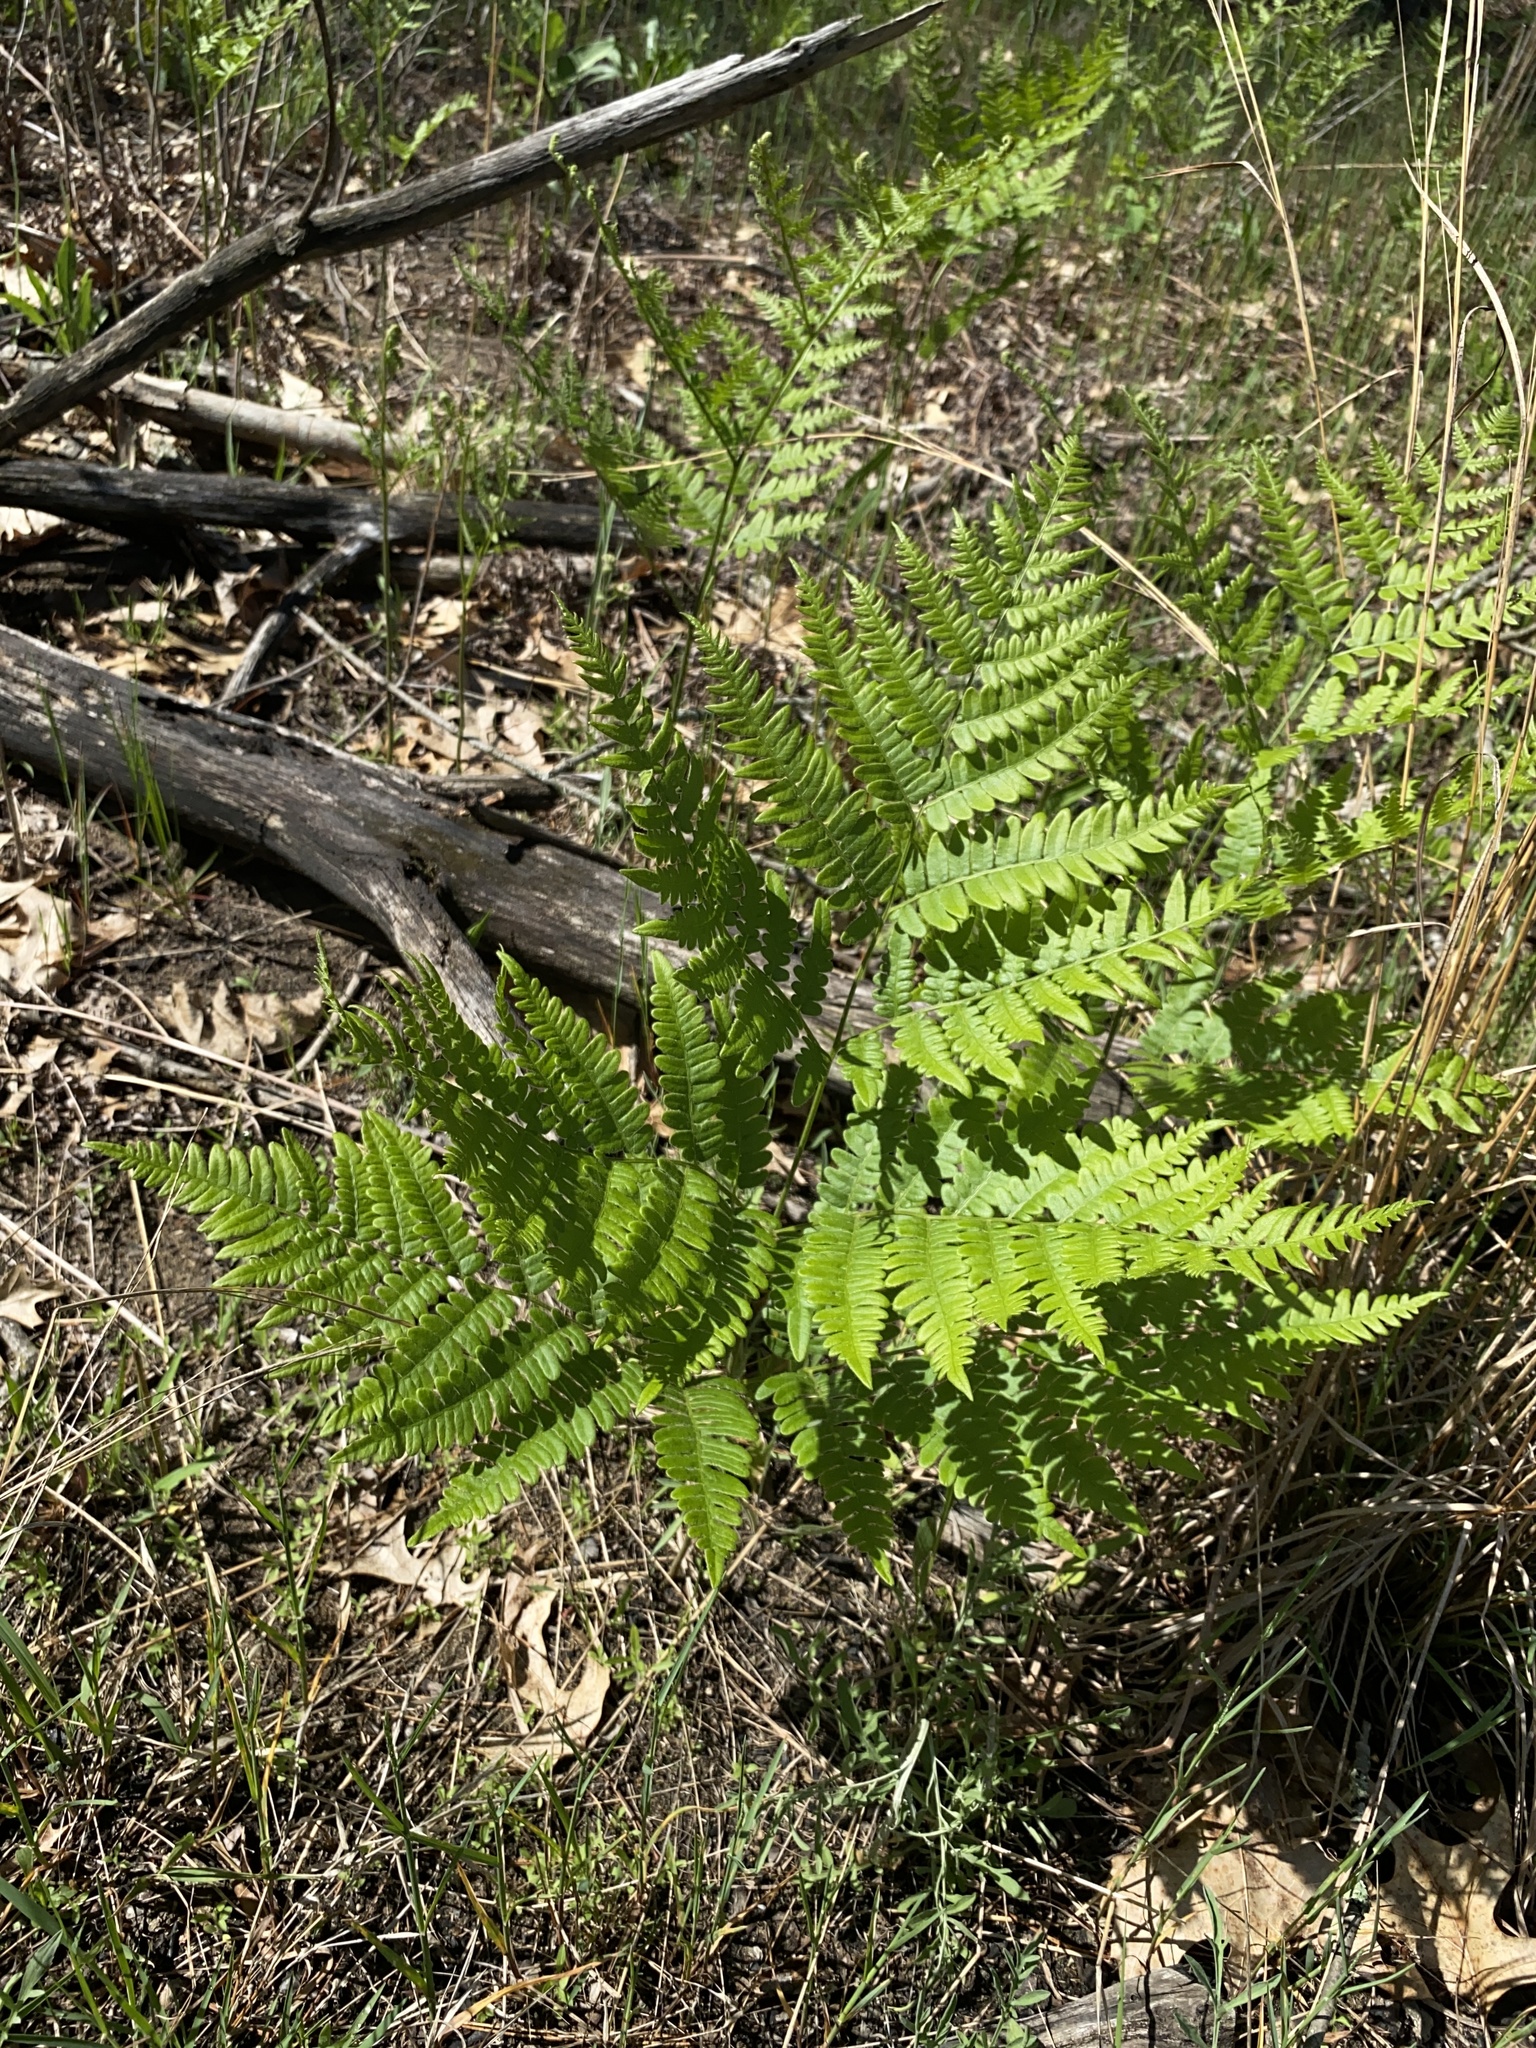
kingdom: Plantae
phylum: Tracheophyta
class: Polypodiopsida
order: Polypodiales
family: Dennstaedtiaceae
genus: Pteridium
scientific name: Pteridium aquilinum
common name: Bracken
